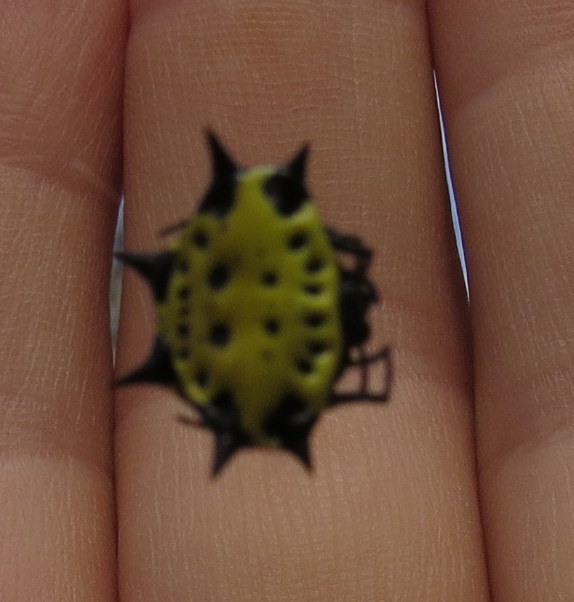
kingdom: Animalia
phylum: Arthropoda
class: Arachnida
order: Araneae
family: Araneidae
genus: Gasteracantha
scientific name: Gasteracantha cancriformis
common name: Orb weavers
